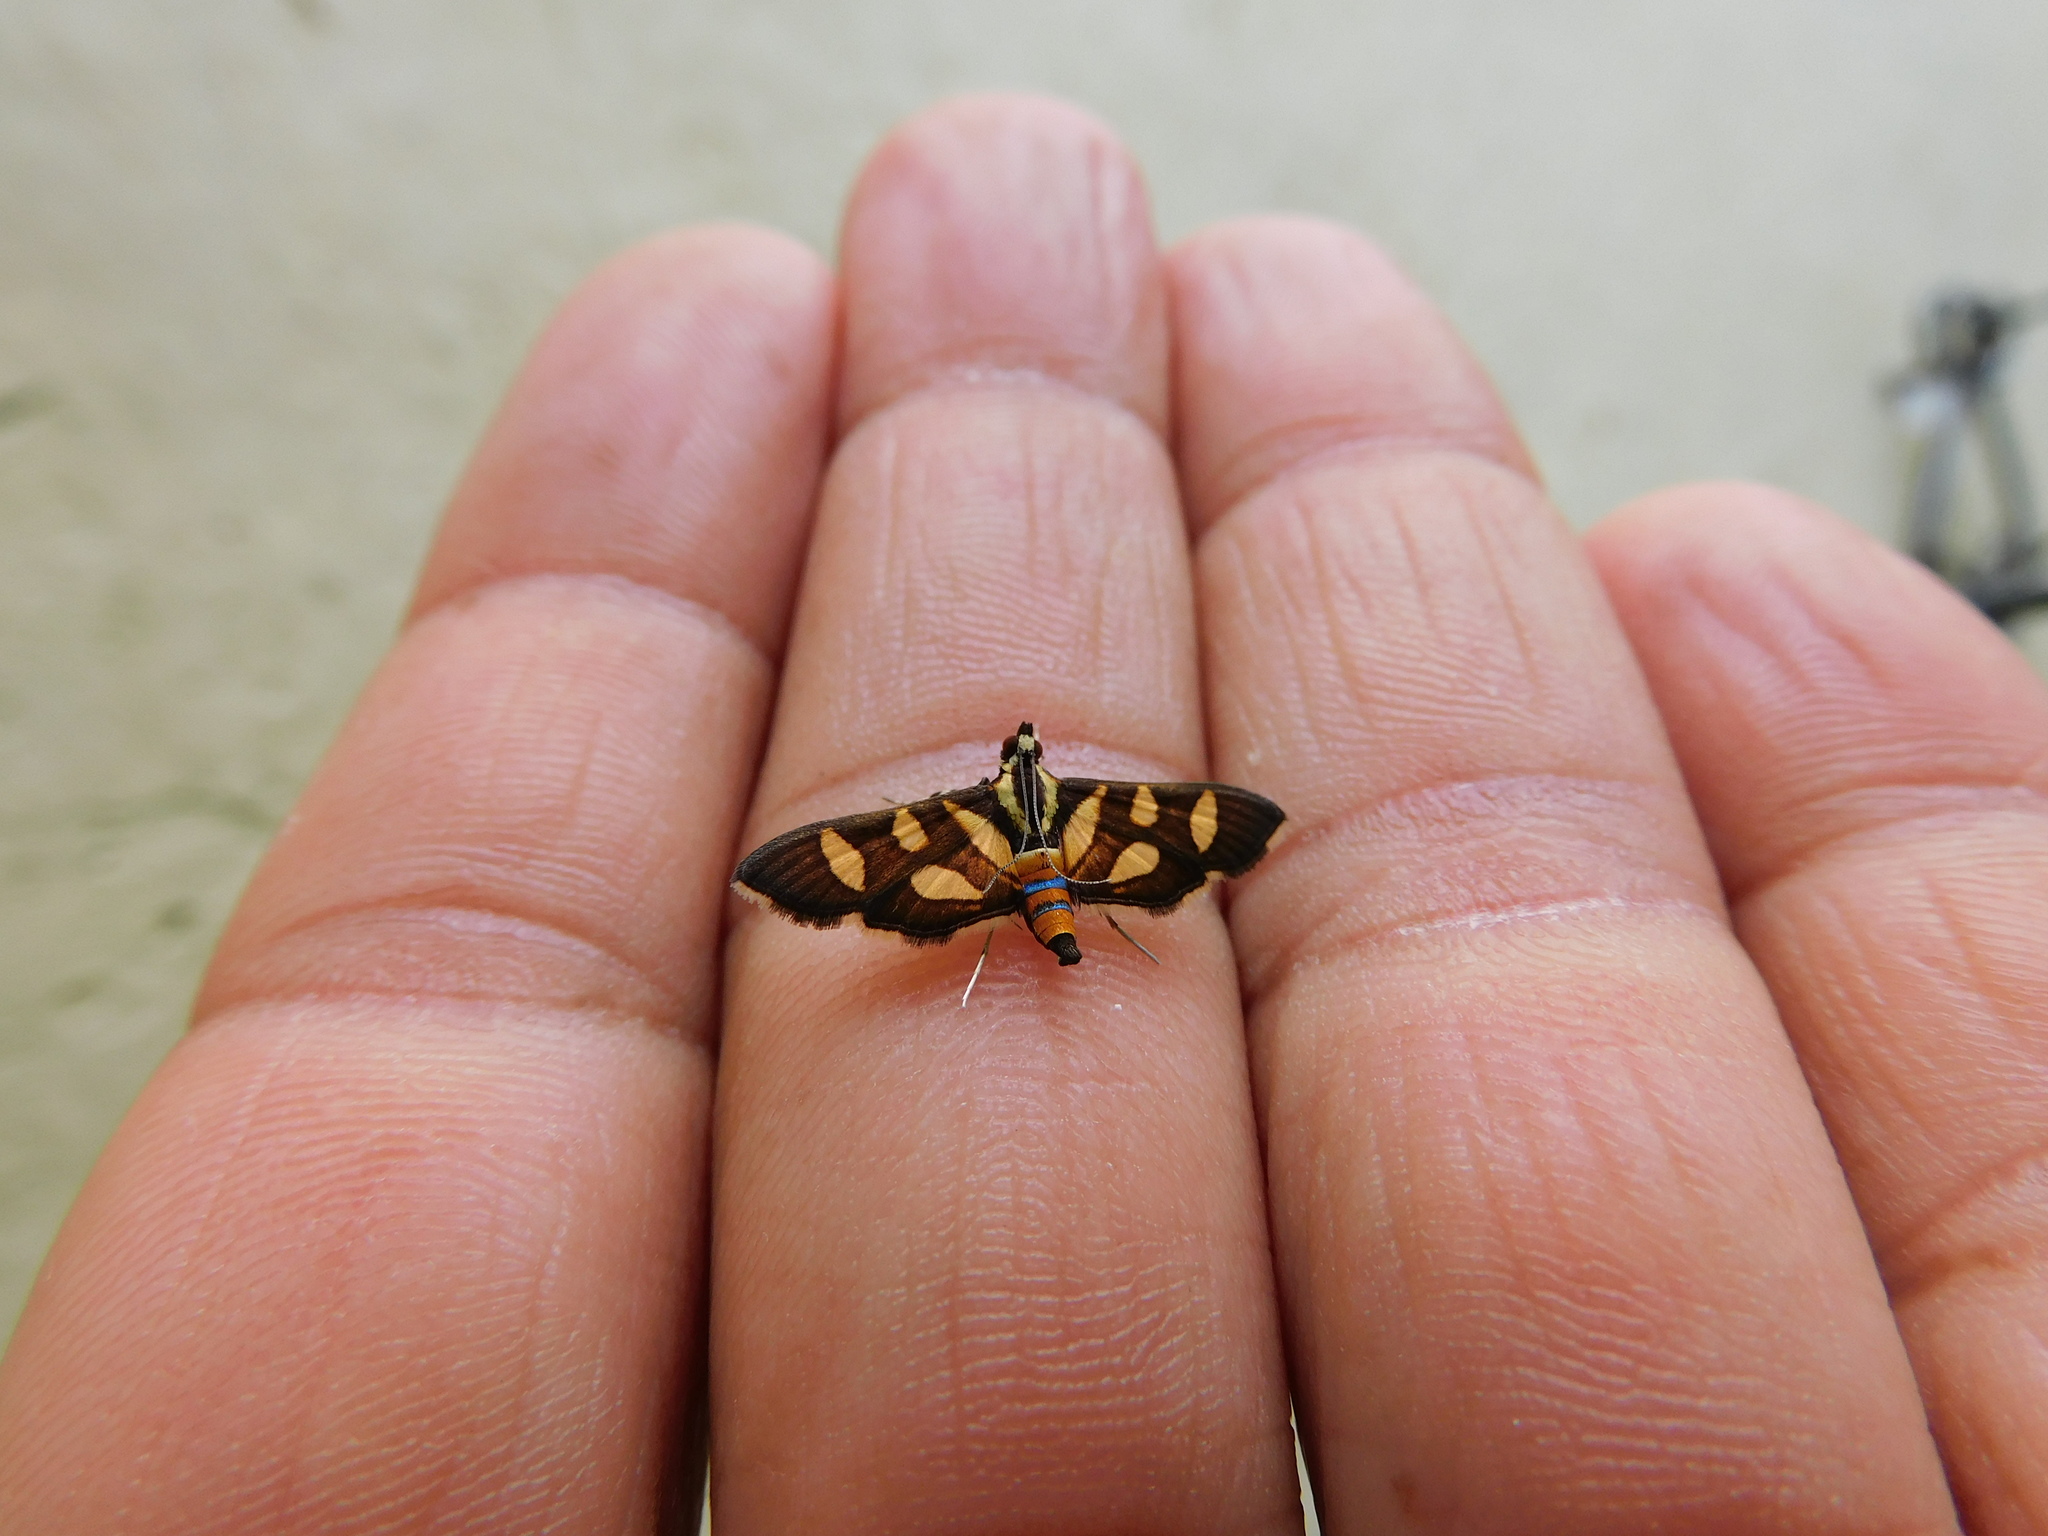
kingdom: Animalia
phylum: Arthropoda
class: Insecta
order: Lepidoptera
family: Crambidae
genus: Syngamia
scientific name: Syngamia florella
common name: Orange-spotted flower moth
